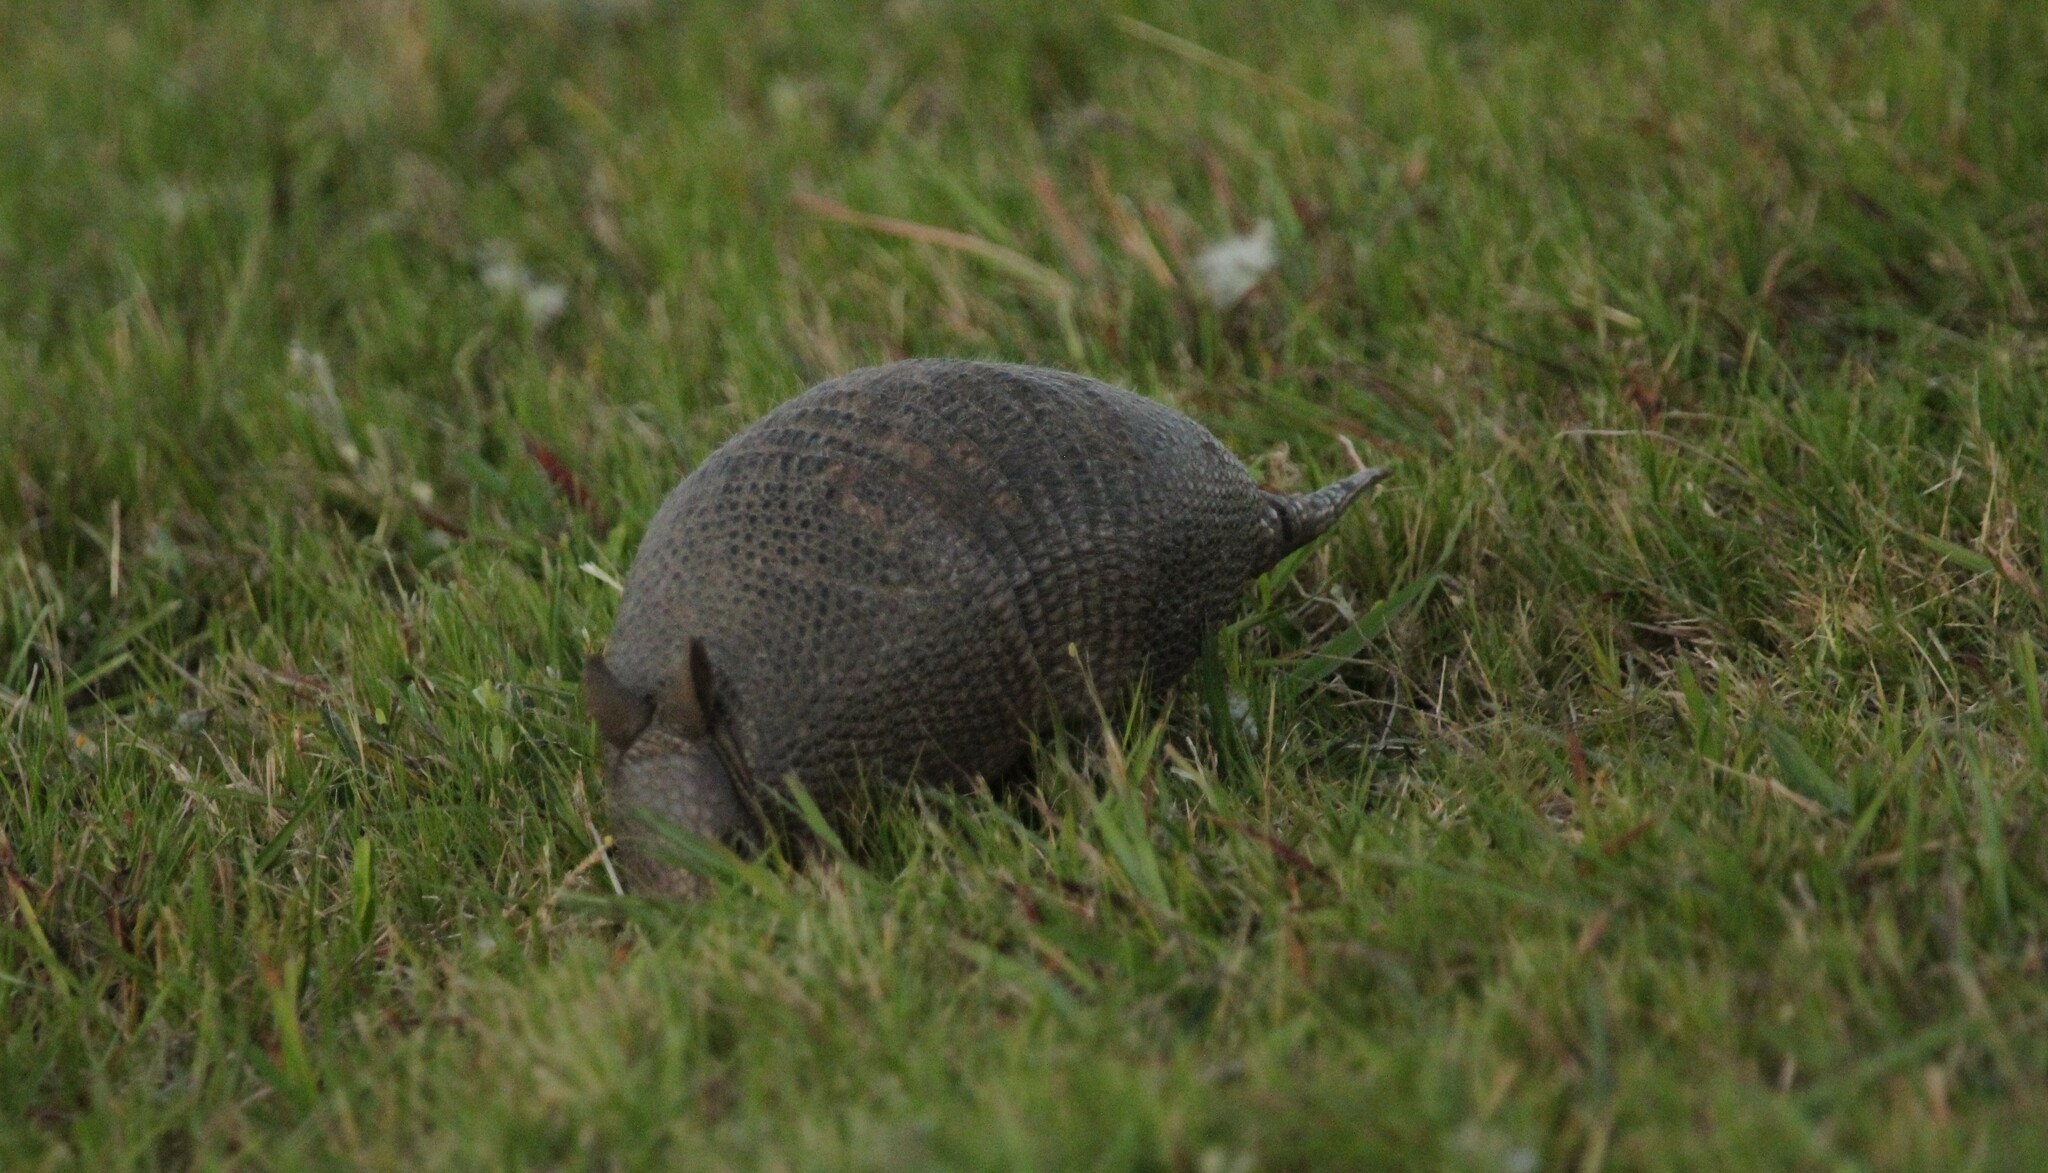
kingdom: Animalia
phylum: Chordata
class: Mammalia
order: Cingulata
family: Dasypodidae
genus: Dasypus
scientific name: Dasypus septemcinctus
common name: Seven-banded armadillo
